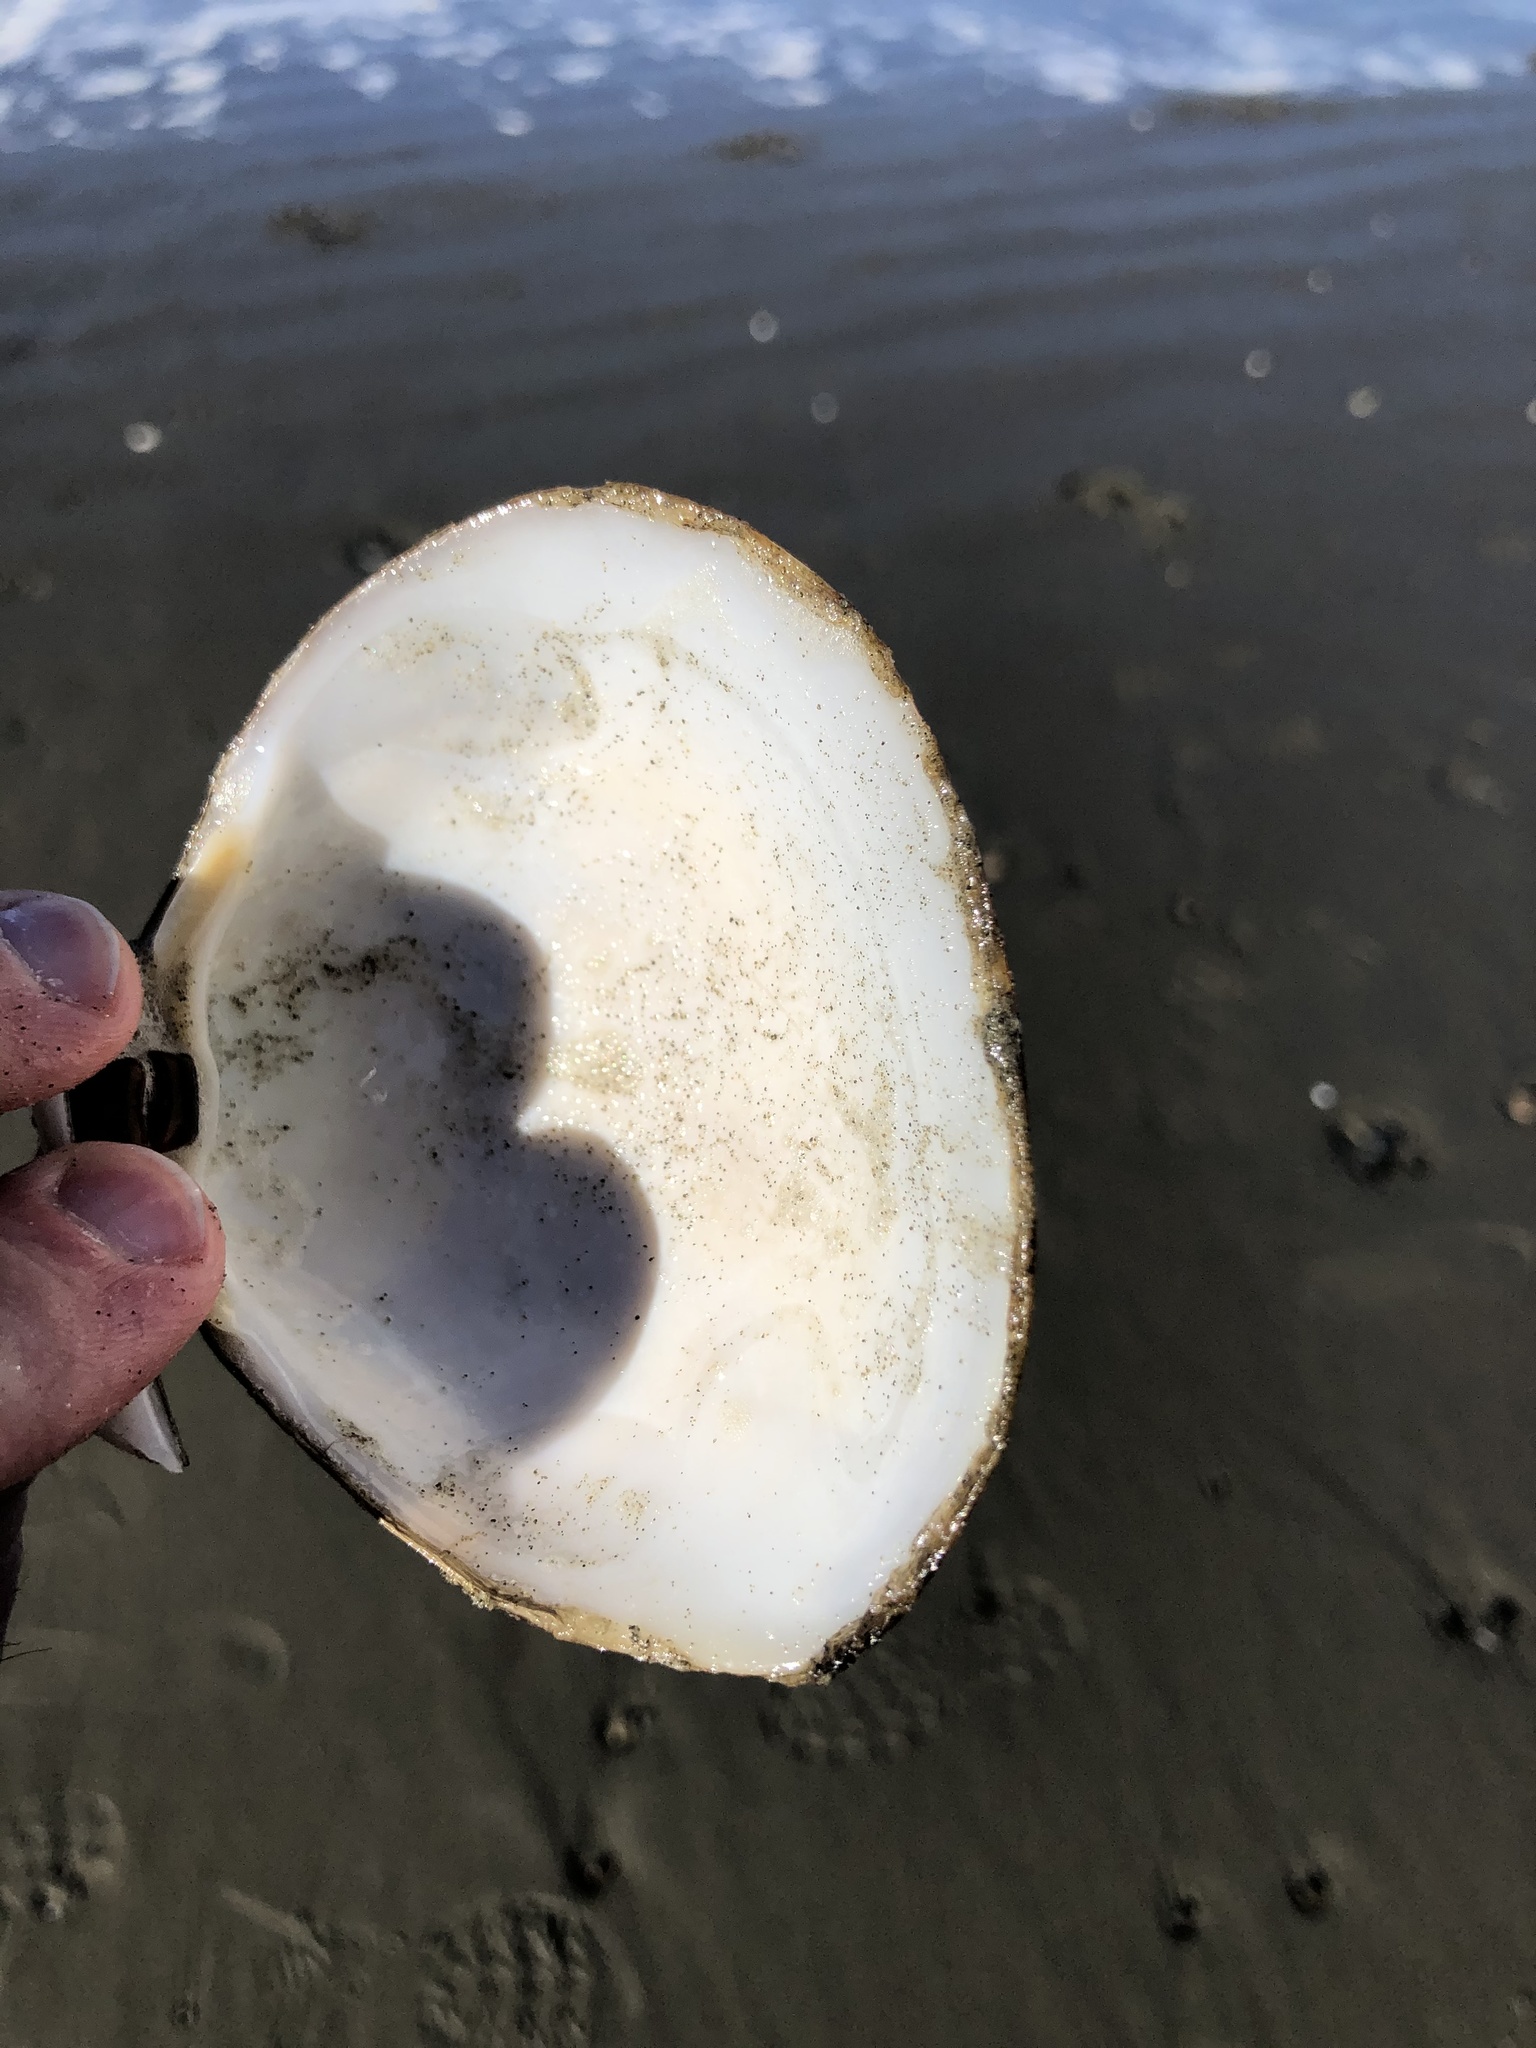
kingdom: Animalia
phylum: Mollusca
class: Bivalvia
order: Venerida
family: Mactridae
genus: Spisula
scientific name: Spisula murchisoni
